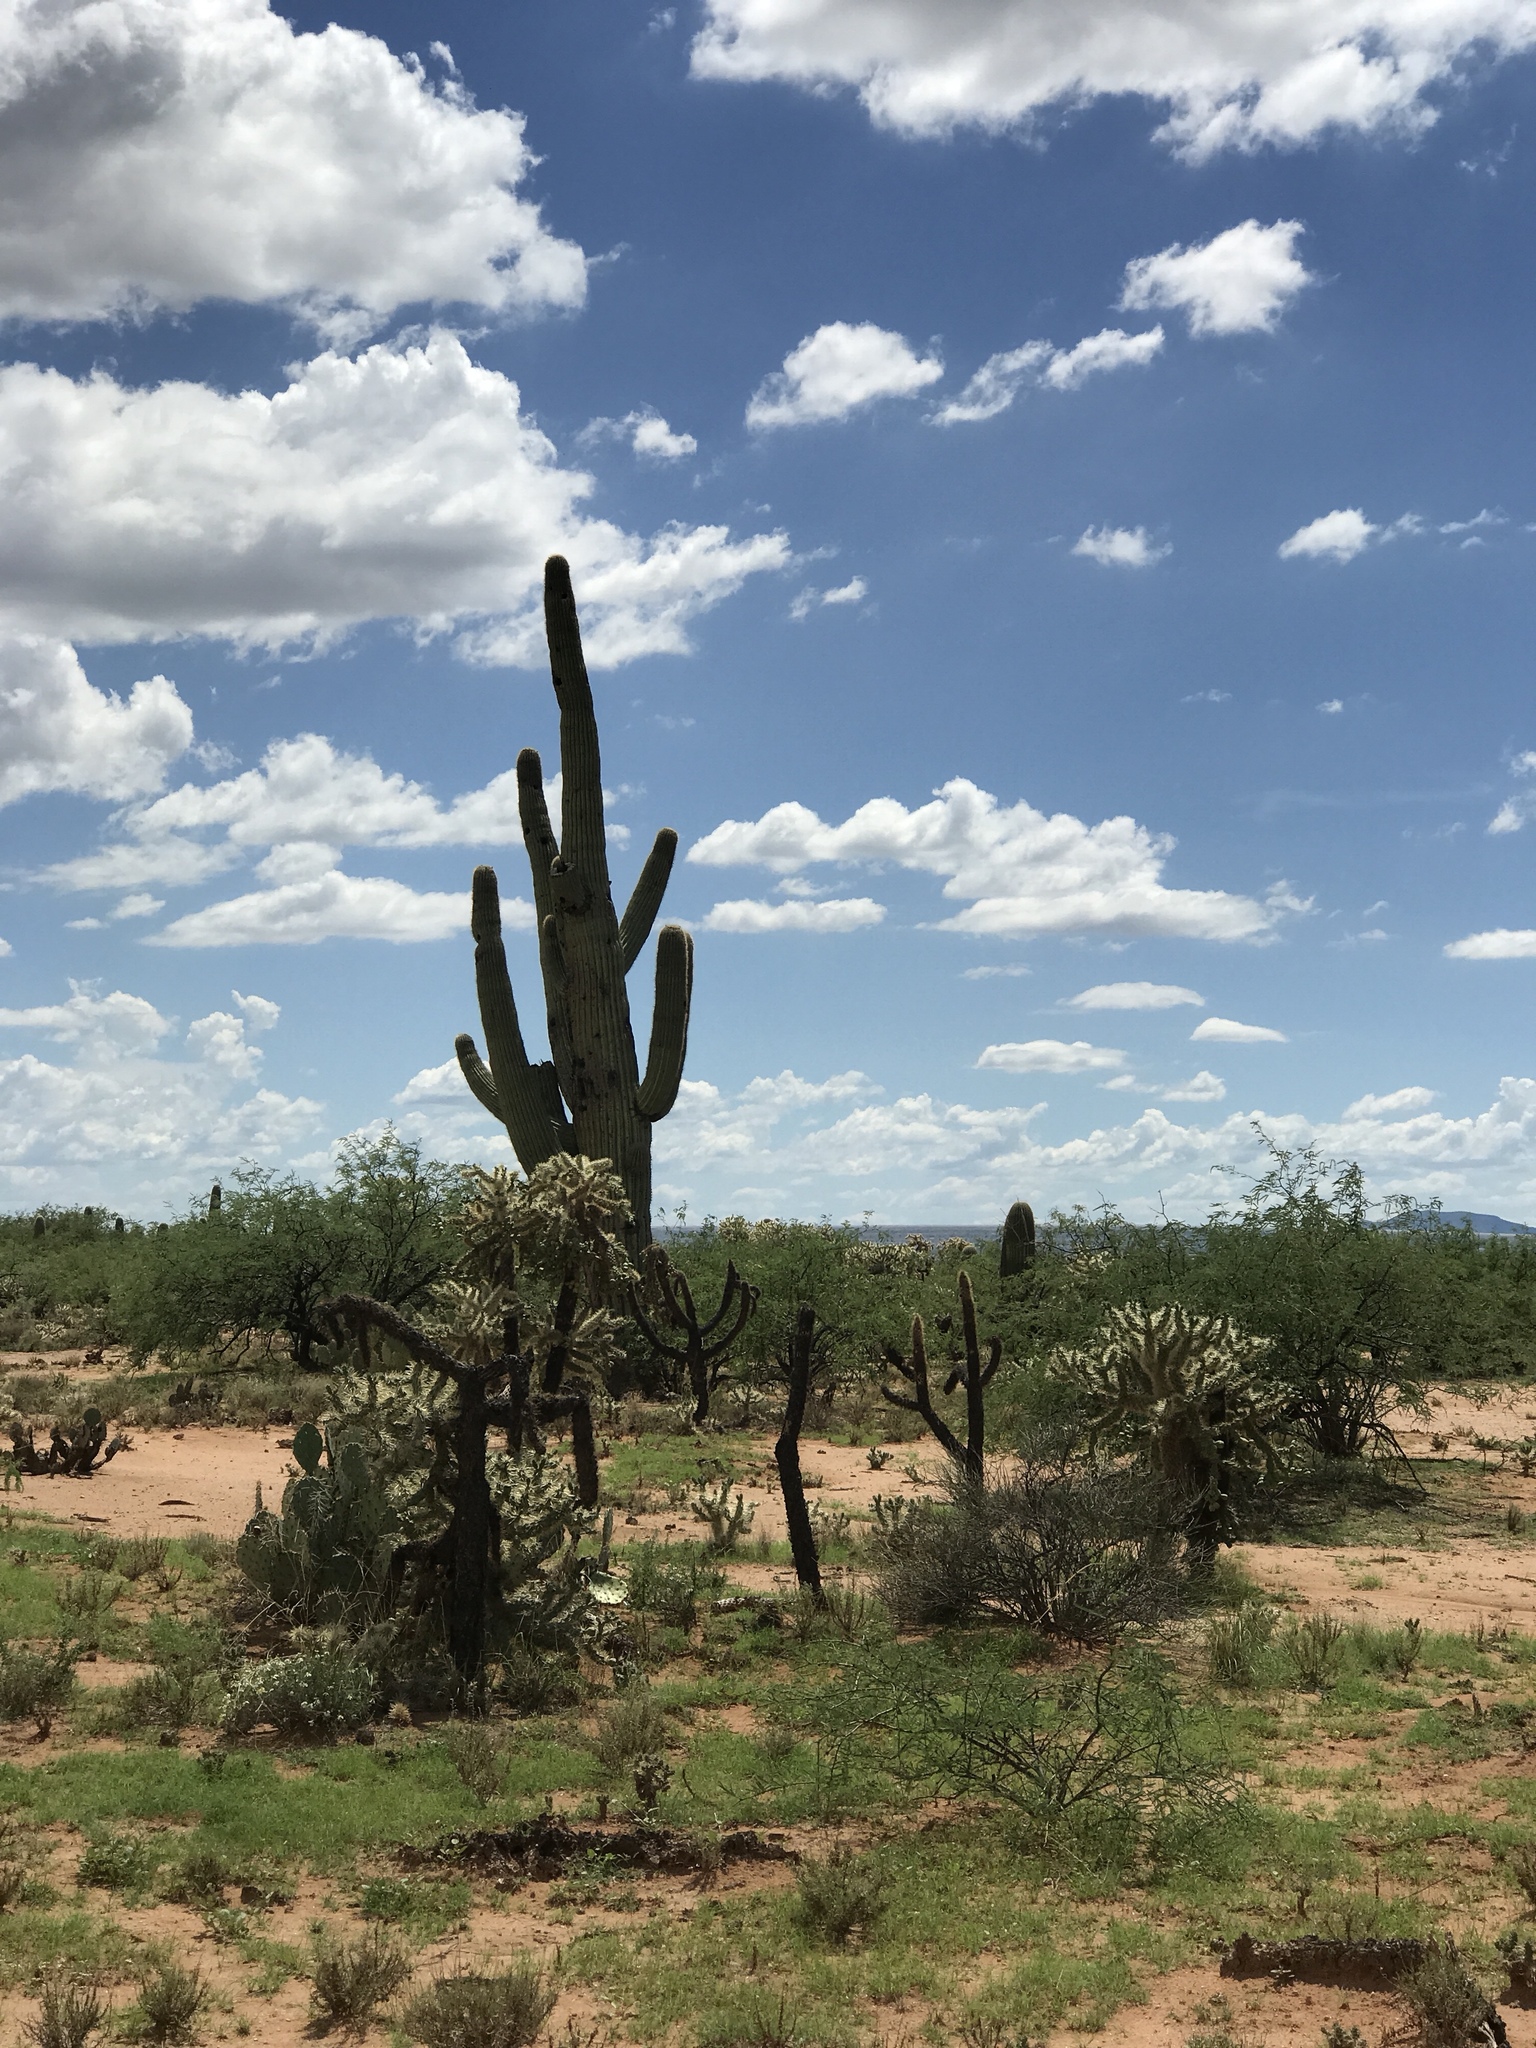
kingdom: Plantae
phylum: Tracheophyta
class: Magnoliopsida
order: Caryophyllales
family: Cactaceae
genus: Carnegiea
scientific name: Carnegiea gigantea
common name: Saguaro
